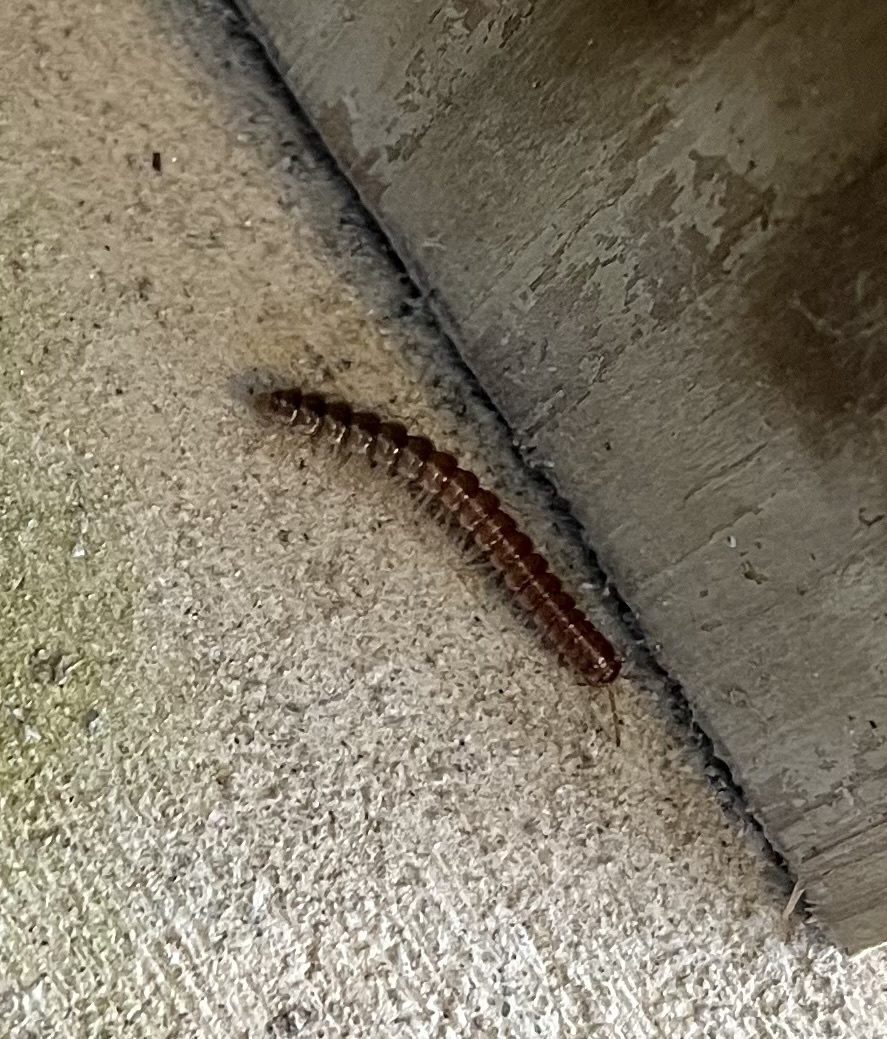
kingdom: Animalia
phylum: Arthropoda
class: Diplopoda
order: Polydesmida
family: Paradoxosomatidae
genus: Oxidus
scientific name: Oxidus gracilis
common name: Greenhouse millipede
